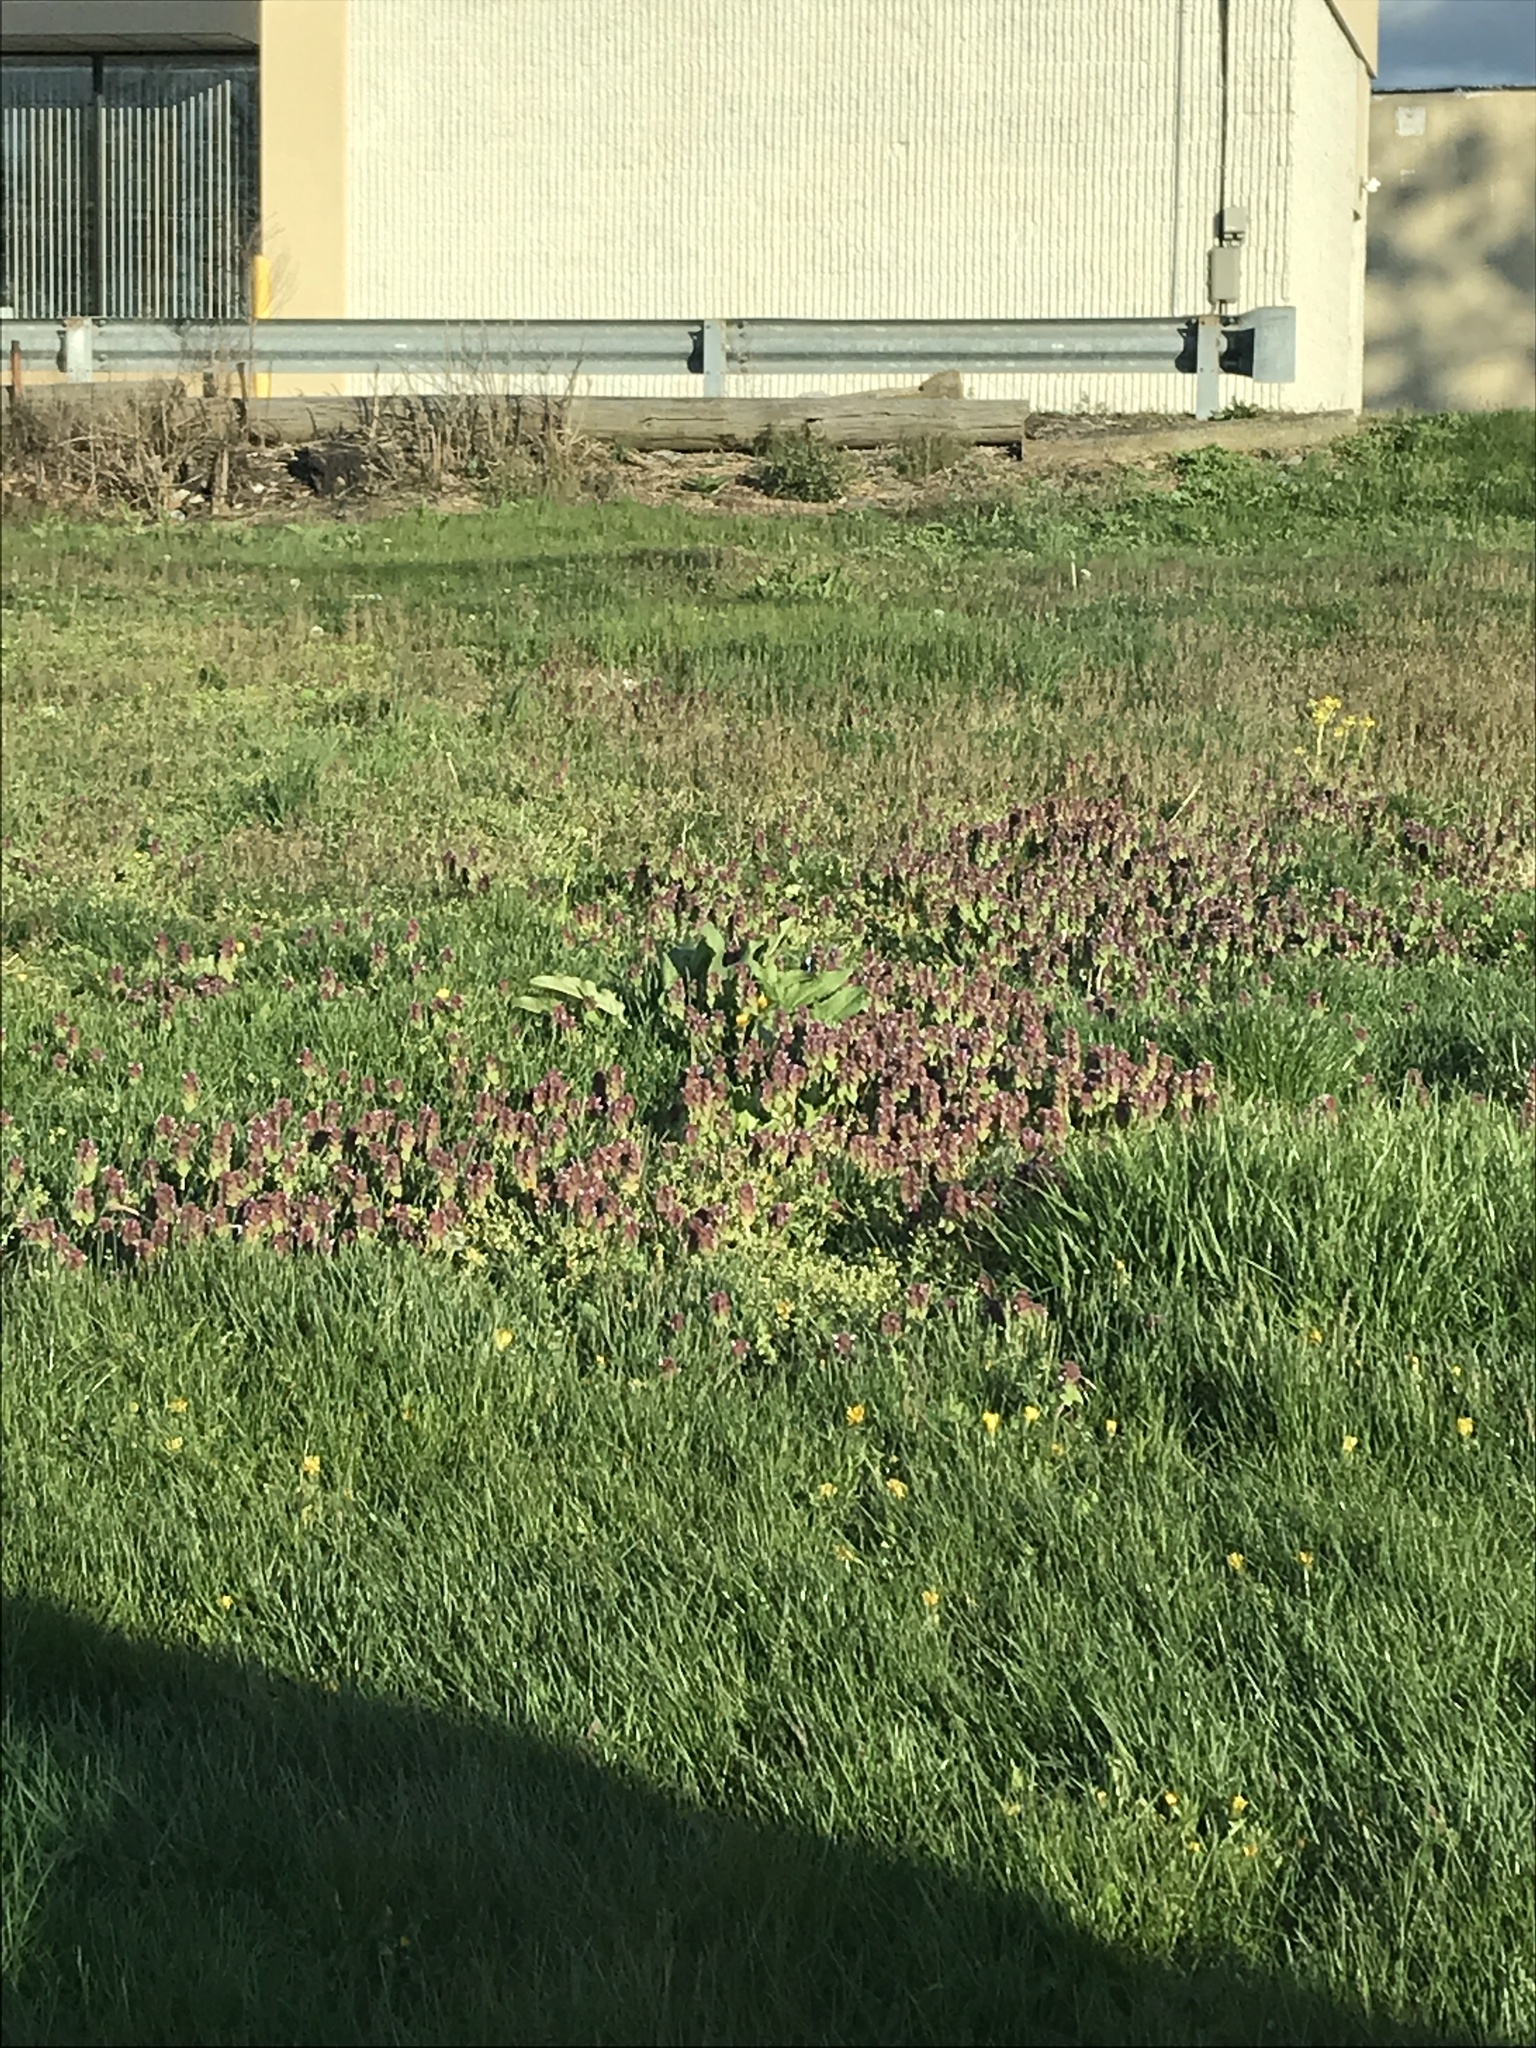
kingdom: Plantae
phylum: Tracheophyta
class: Magnoliopsida
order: Lamiales
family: Lamiaceae
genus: Lamium
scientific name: Lamium purpureum
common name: Red dead-nettle
